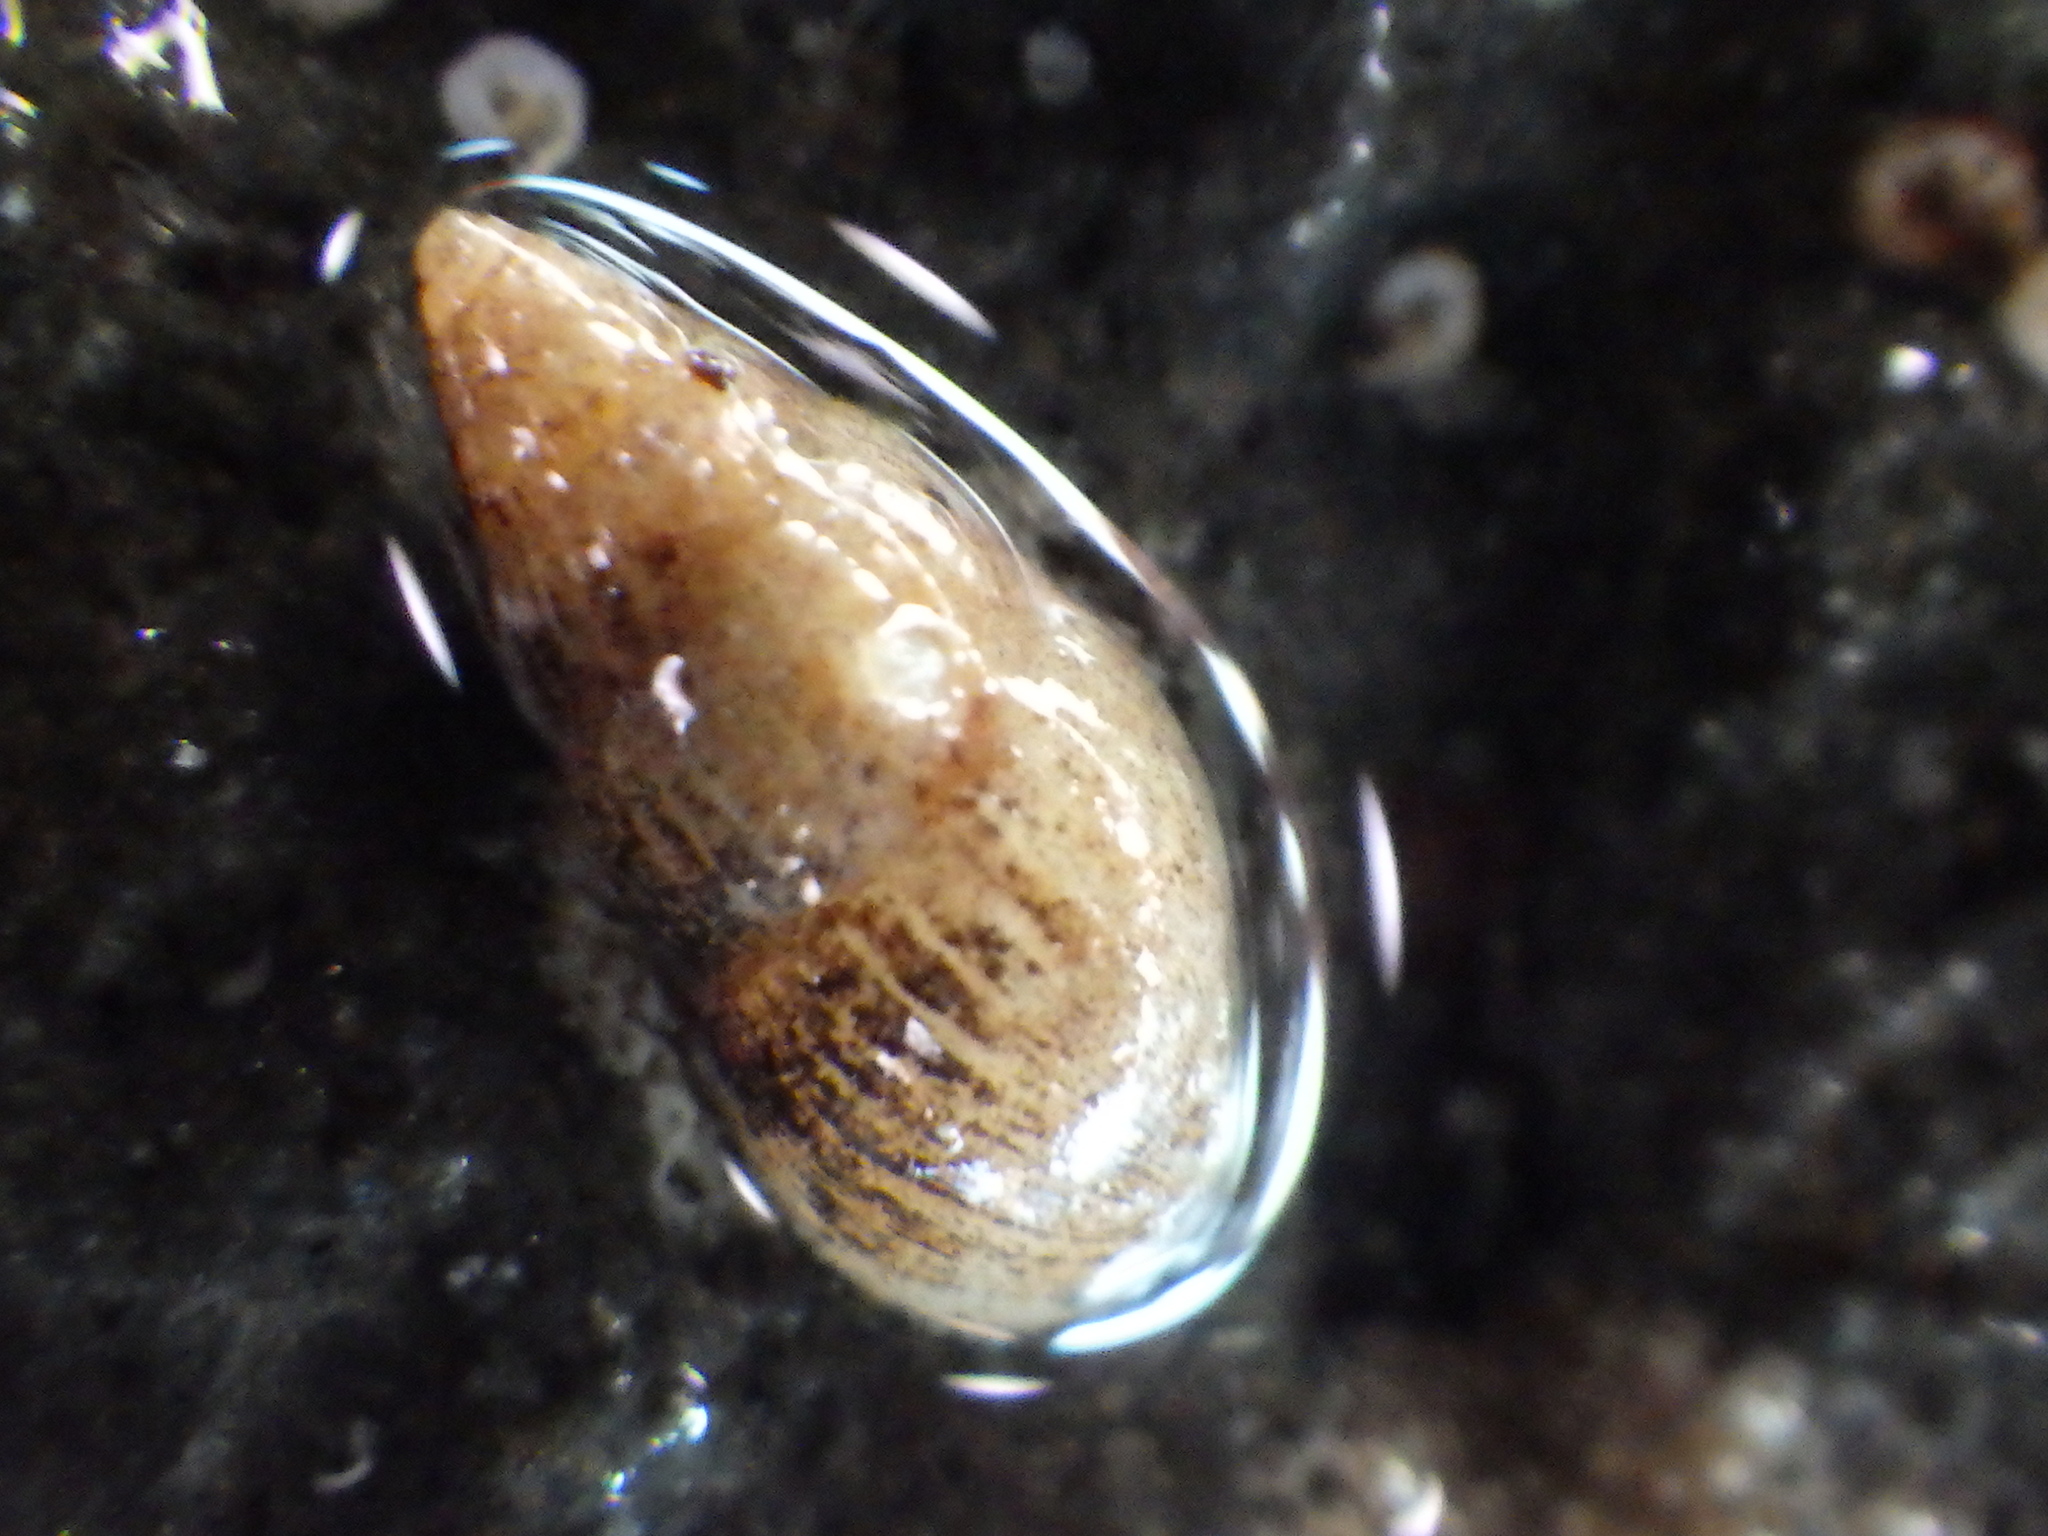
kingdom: Animalia
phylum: Mollusca
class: Gastropoda
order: Littorinimorpha
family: Rissoinidae
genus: Rissoina
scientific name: Rissoina chathamensis
